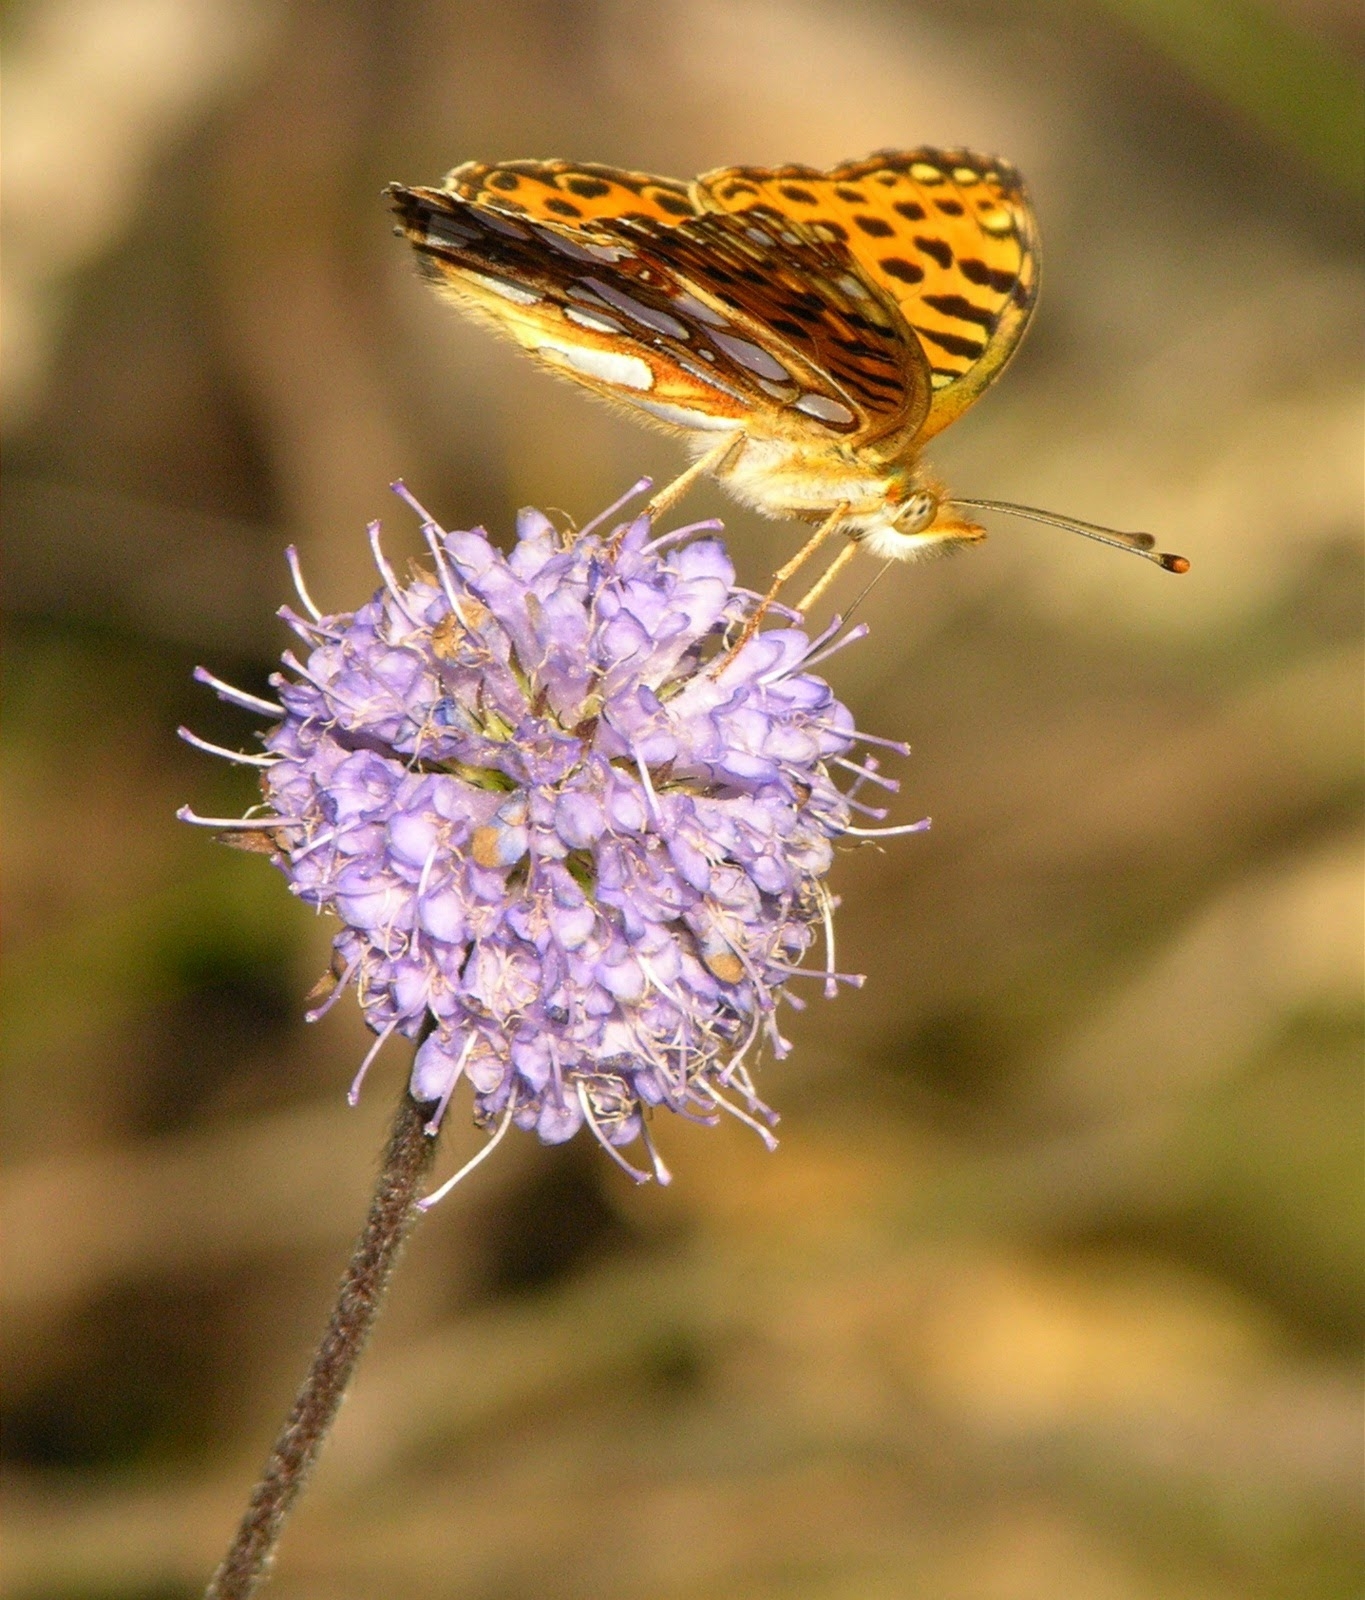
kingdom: Animalia
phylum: Arthropoda
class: Insecta
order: Lepidoptera
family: Nymphalidae
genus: Issoria
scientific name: Issoria lathonia
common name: Queen of spain fritillary
